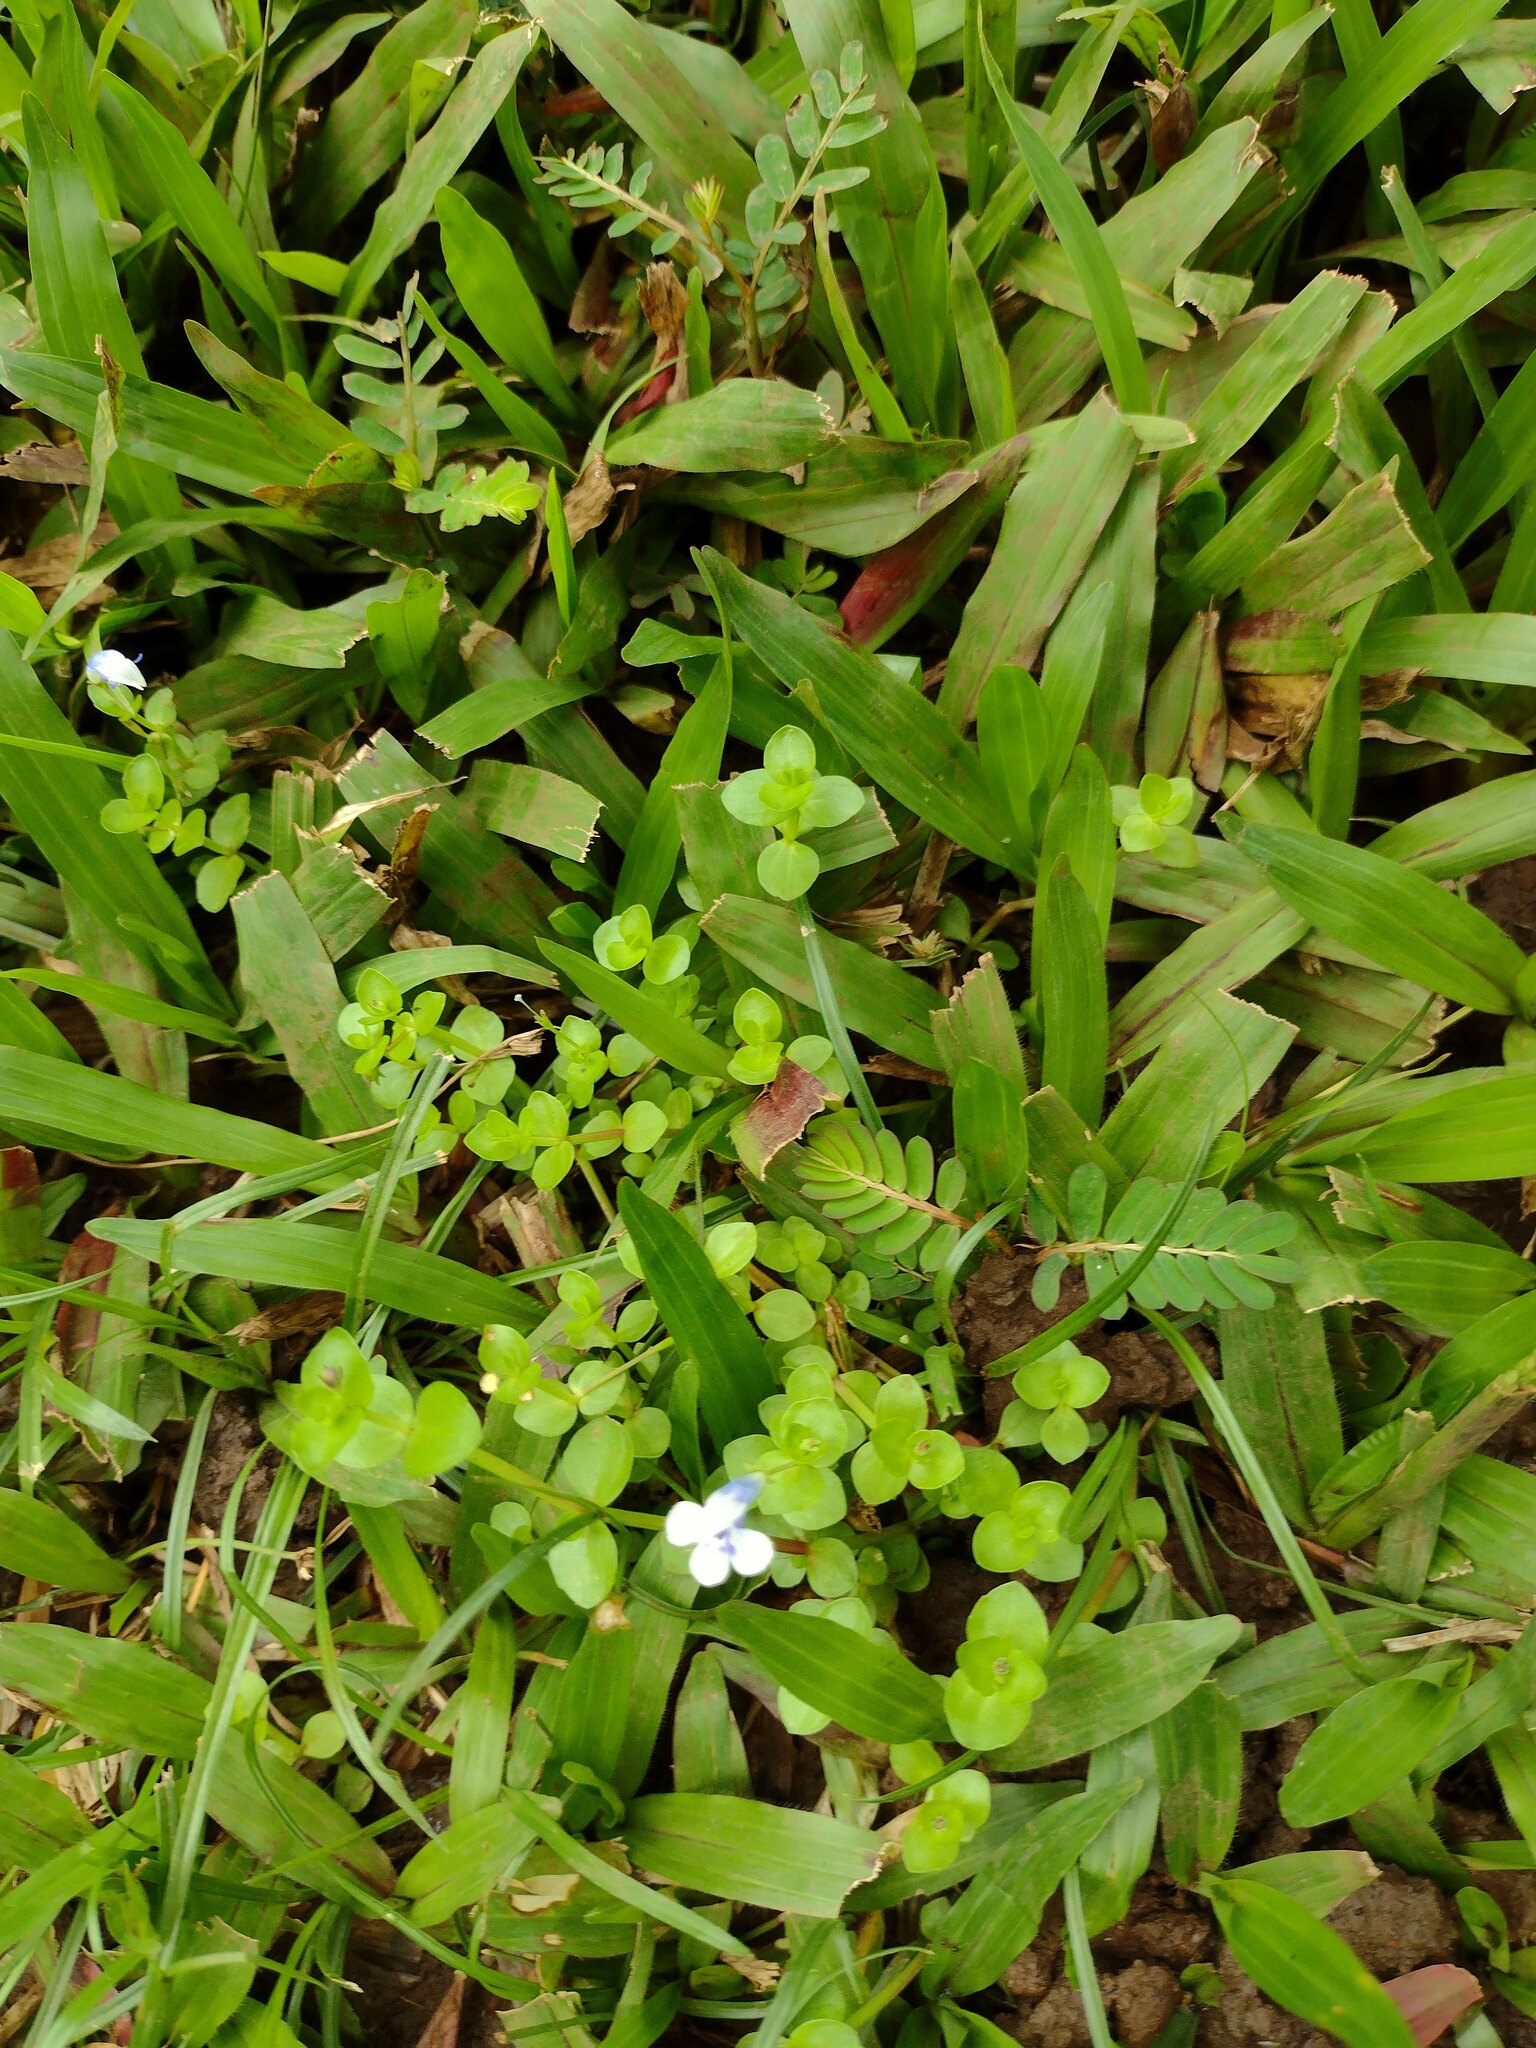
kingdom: Plantae
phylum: Tracheophyta
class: Magnoliopsida
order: Lamiales
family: Linderniaceae
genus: Lindernia
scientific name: Lindernia rotundifolia
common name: Baby’s tears
